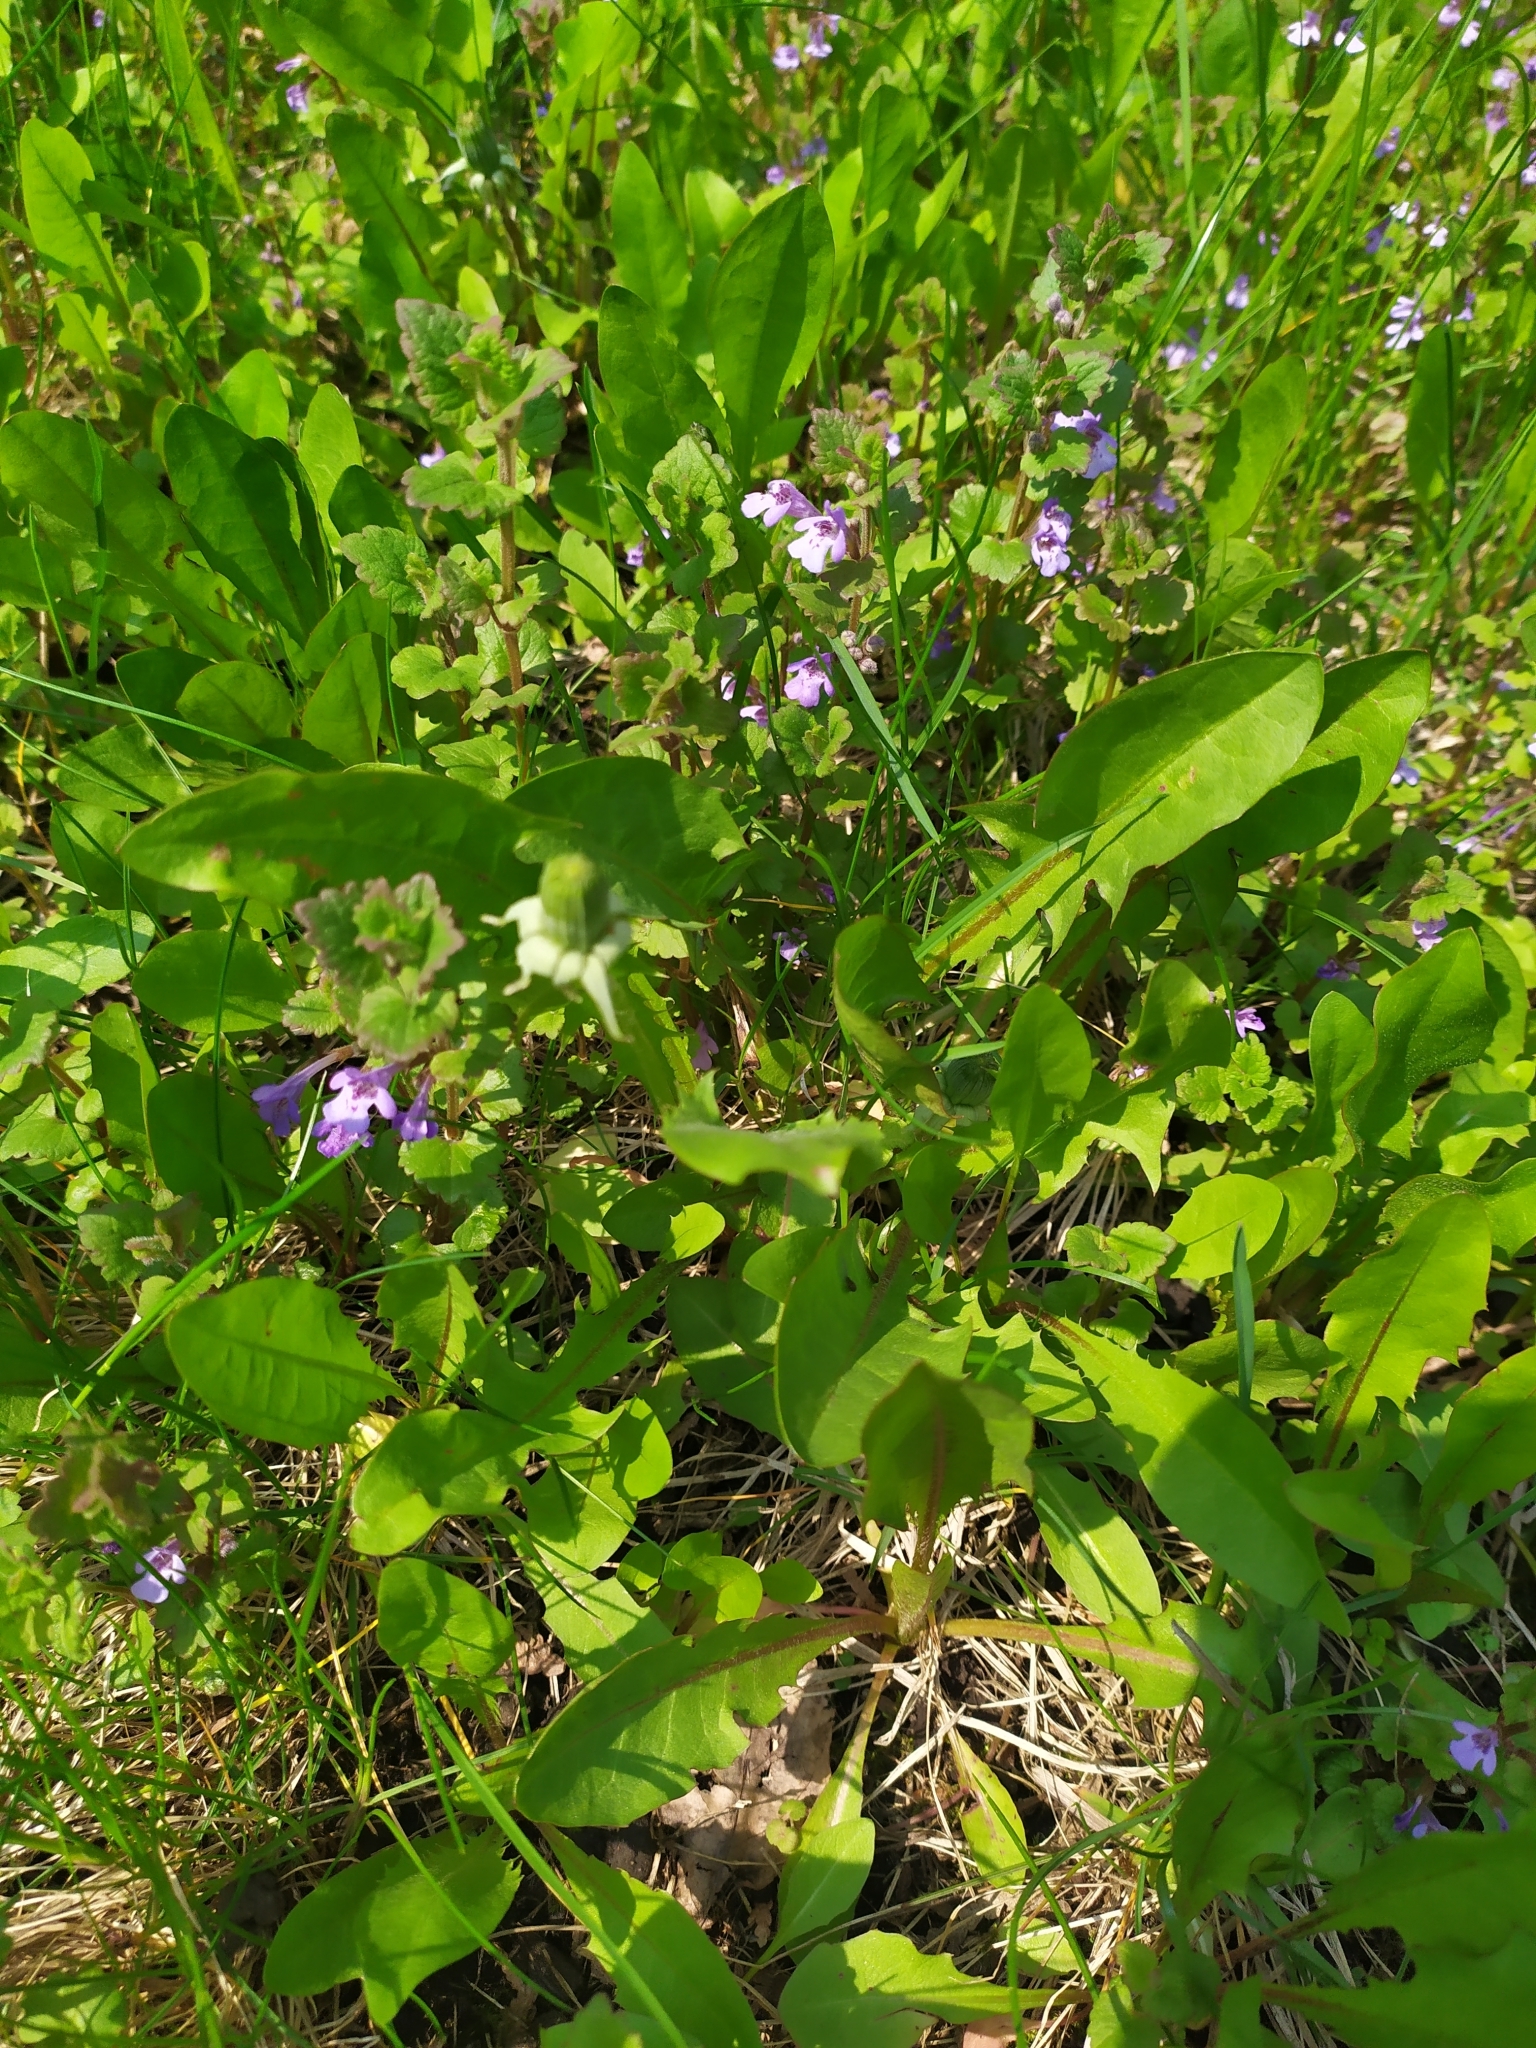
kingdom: Plantae
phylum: Tracheophyta
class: Magnoliopsida
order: Lamiales
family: Lamiaceae
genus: Glechoma
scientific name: Glechoma hederacea
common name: Ground ivy
